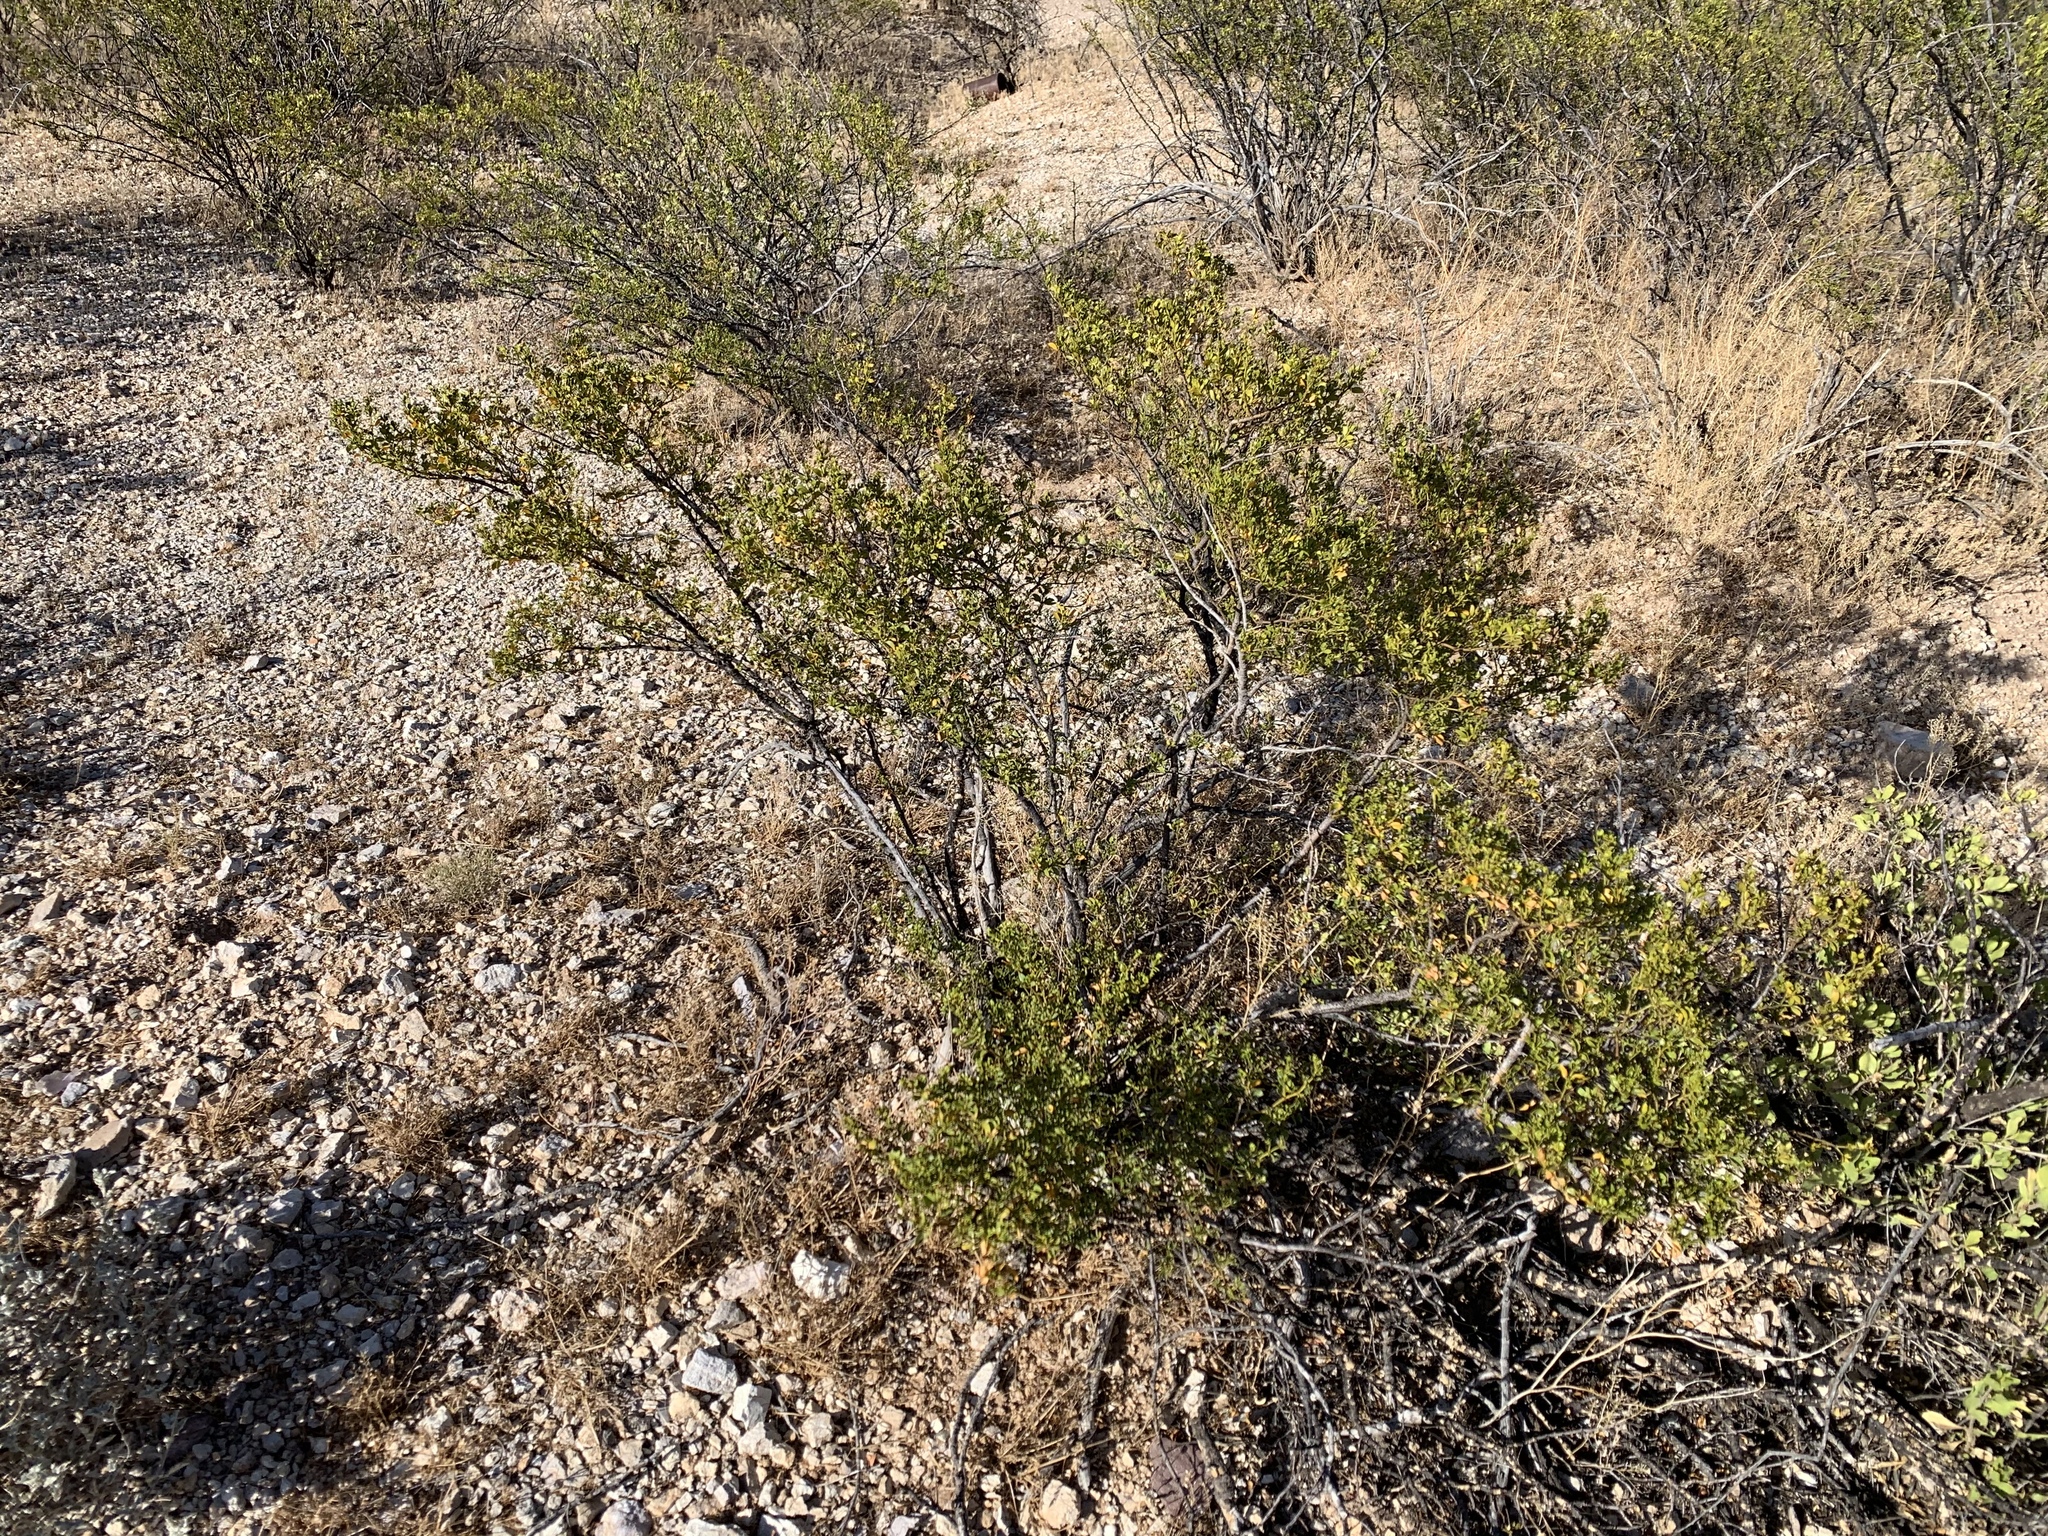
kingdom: Plantae
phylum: Tracheophyta
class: Magnoliopsida
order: Zygophyllales
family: Zygophyllaceae
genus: Larrea
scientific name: Larrea tridentata
